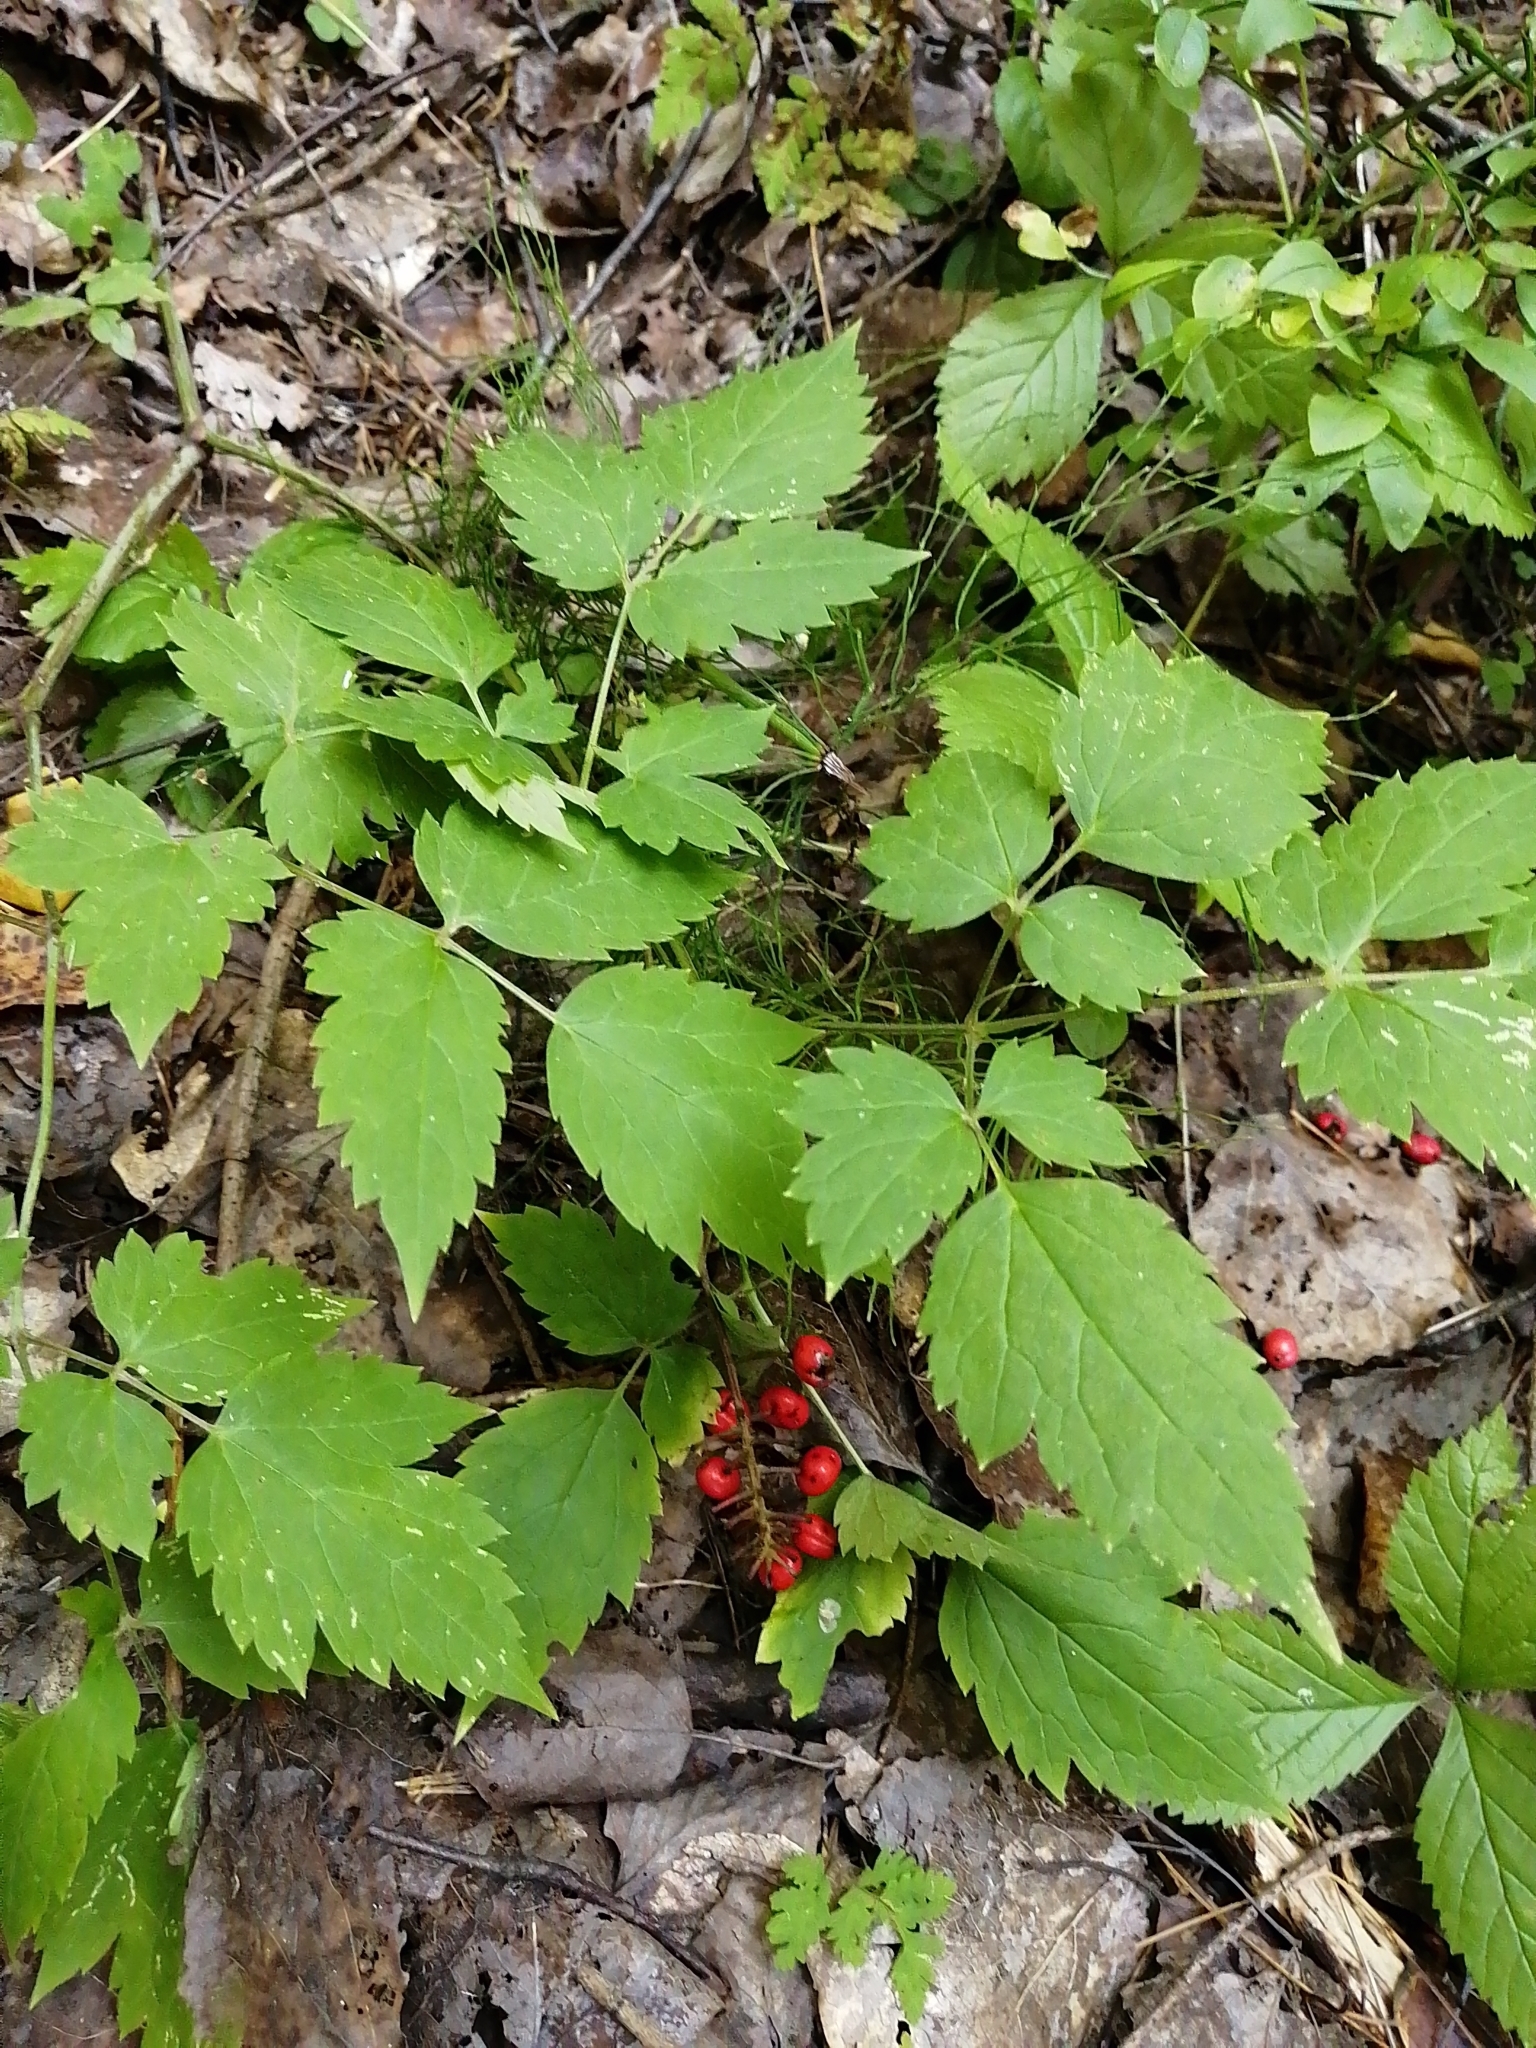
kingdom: Plantae
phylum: Tracheophyta
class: Magnoliopsida
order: Ranunculales
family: Ranunculaceae
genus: Actaea
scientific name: Actaea erythrocarpa
